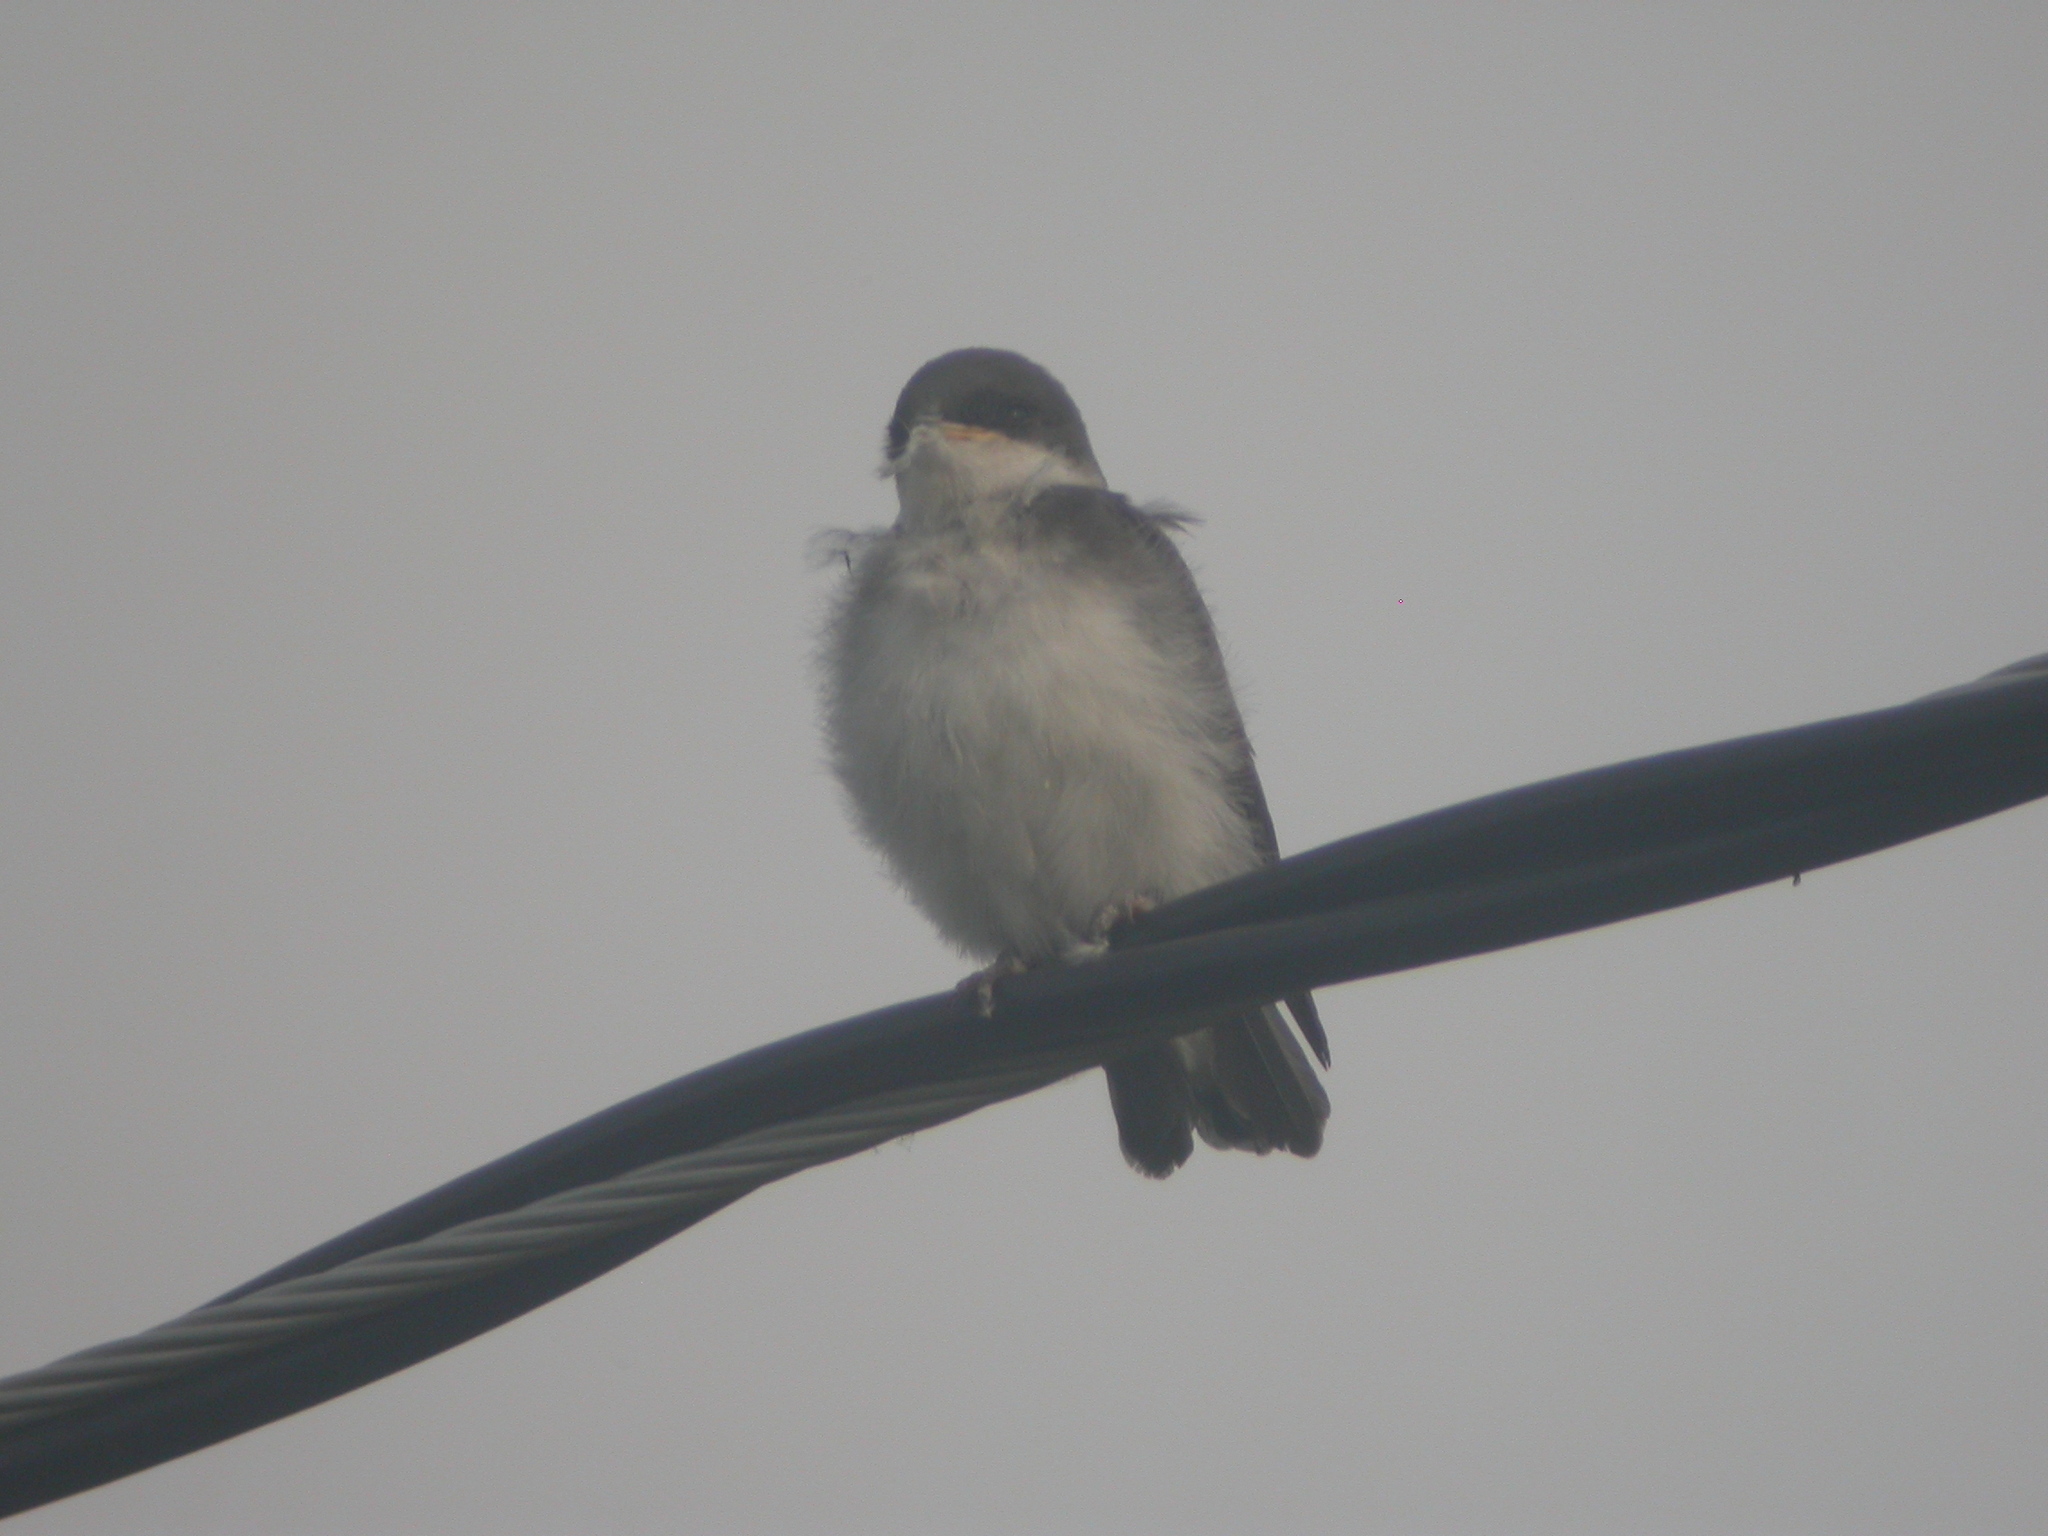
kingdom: Animalia
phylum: Chordata
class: Aves
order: Passeriformes
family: Hirundinidae
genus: Tachycineta
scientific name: Tachycineta bicolor
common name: Tree swallow
